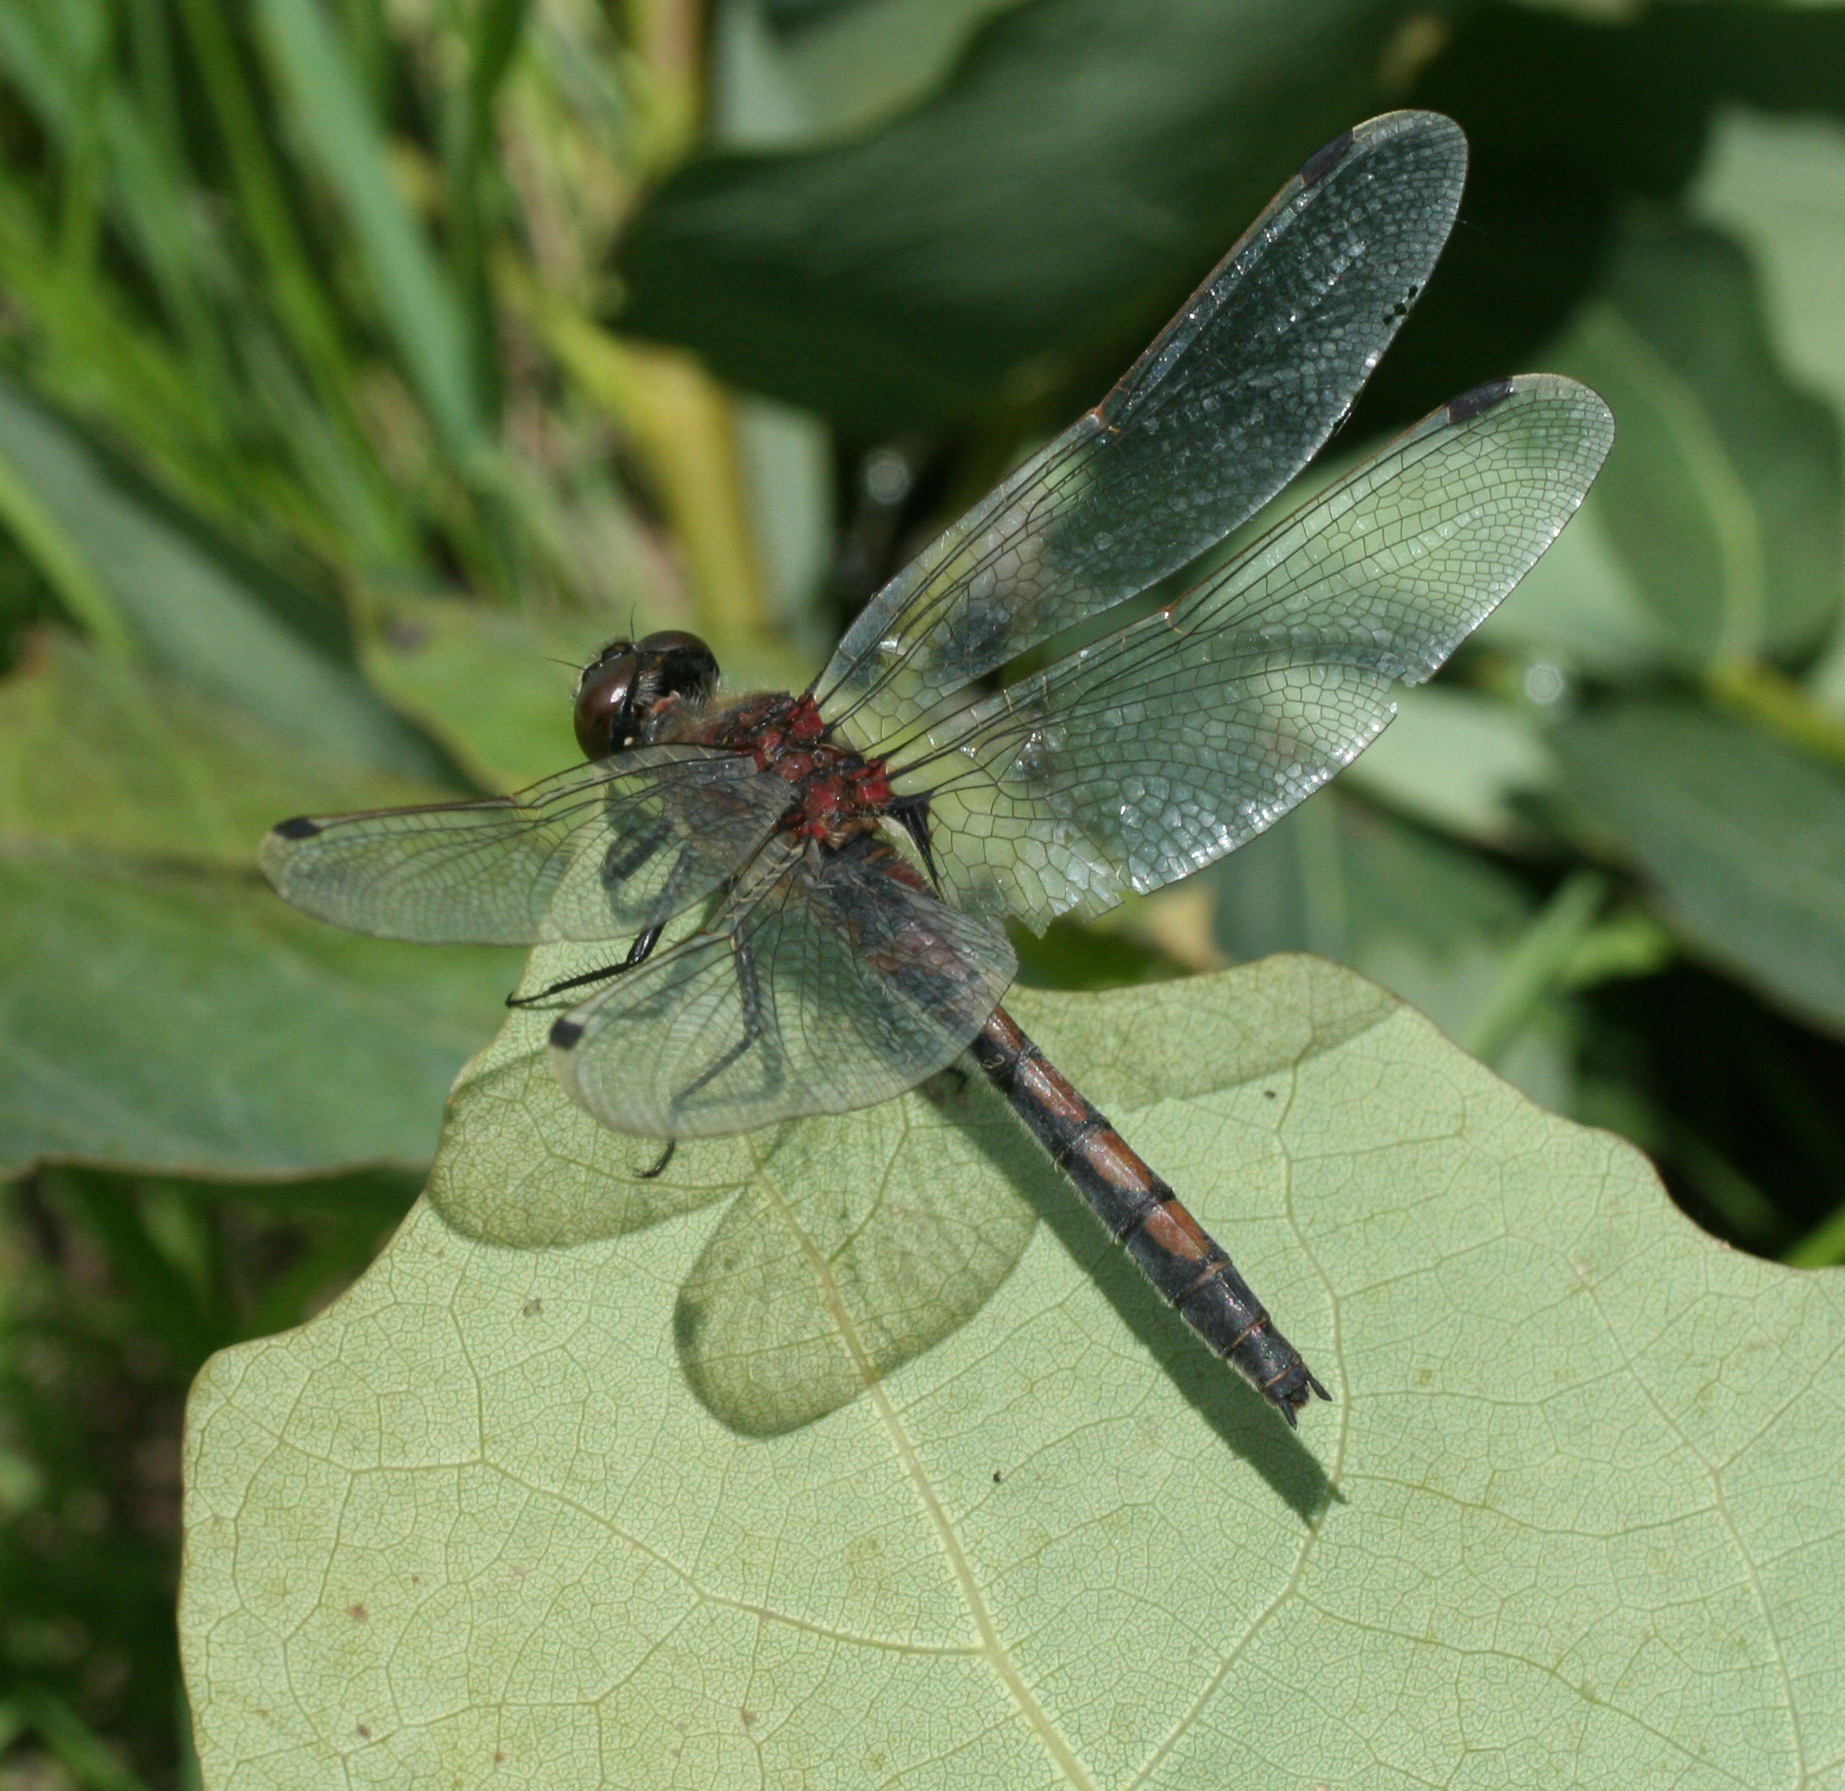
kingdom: Animalia
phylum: Arthropoda
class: Insecta
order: Odonata
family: Libellulidae
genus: Leucorrhinia
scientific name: Leucorrhinia rubicunda
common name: Ruby whiteface
